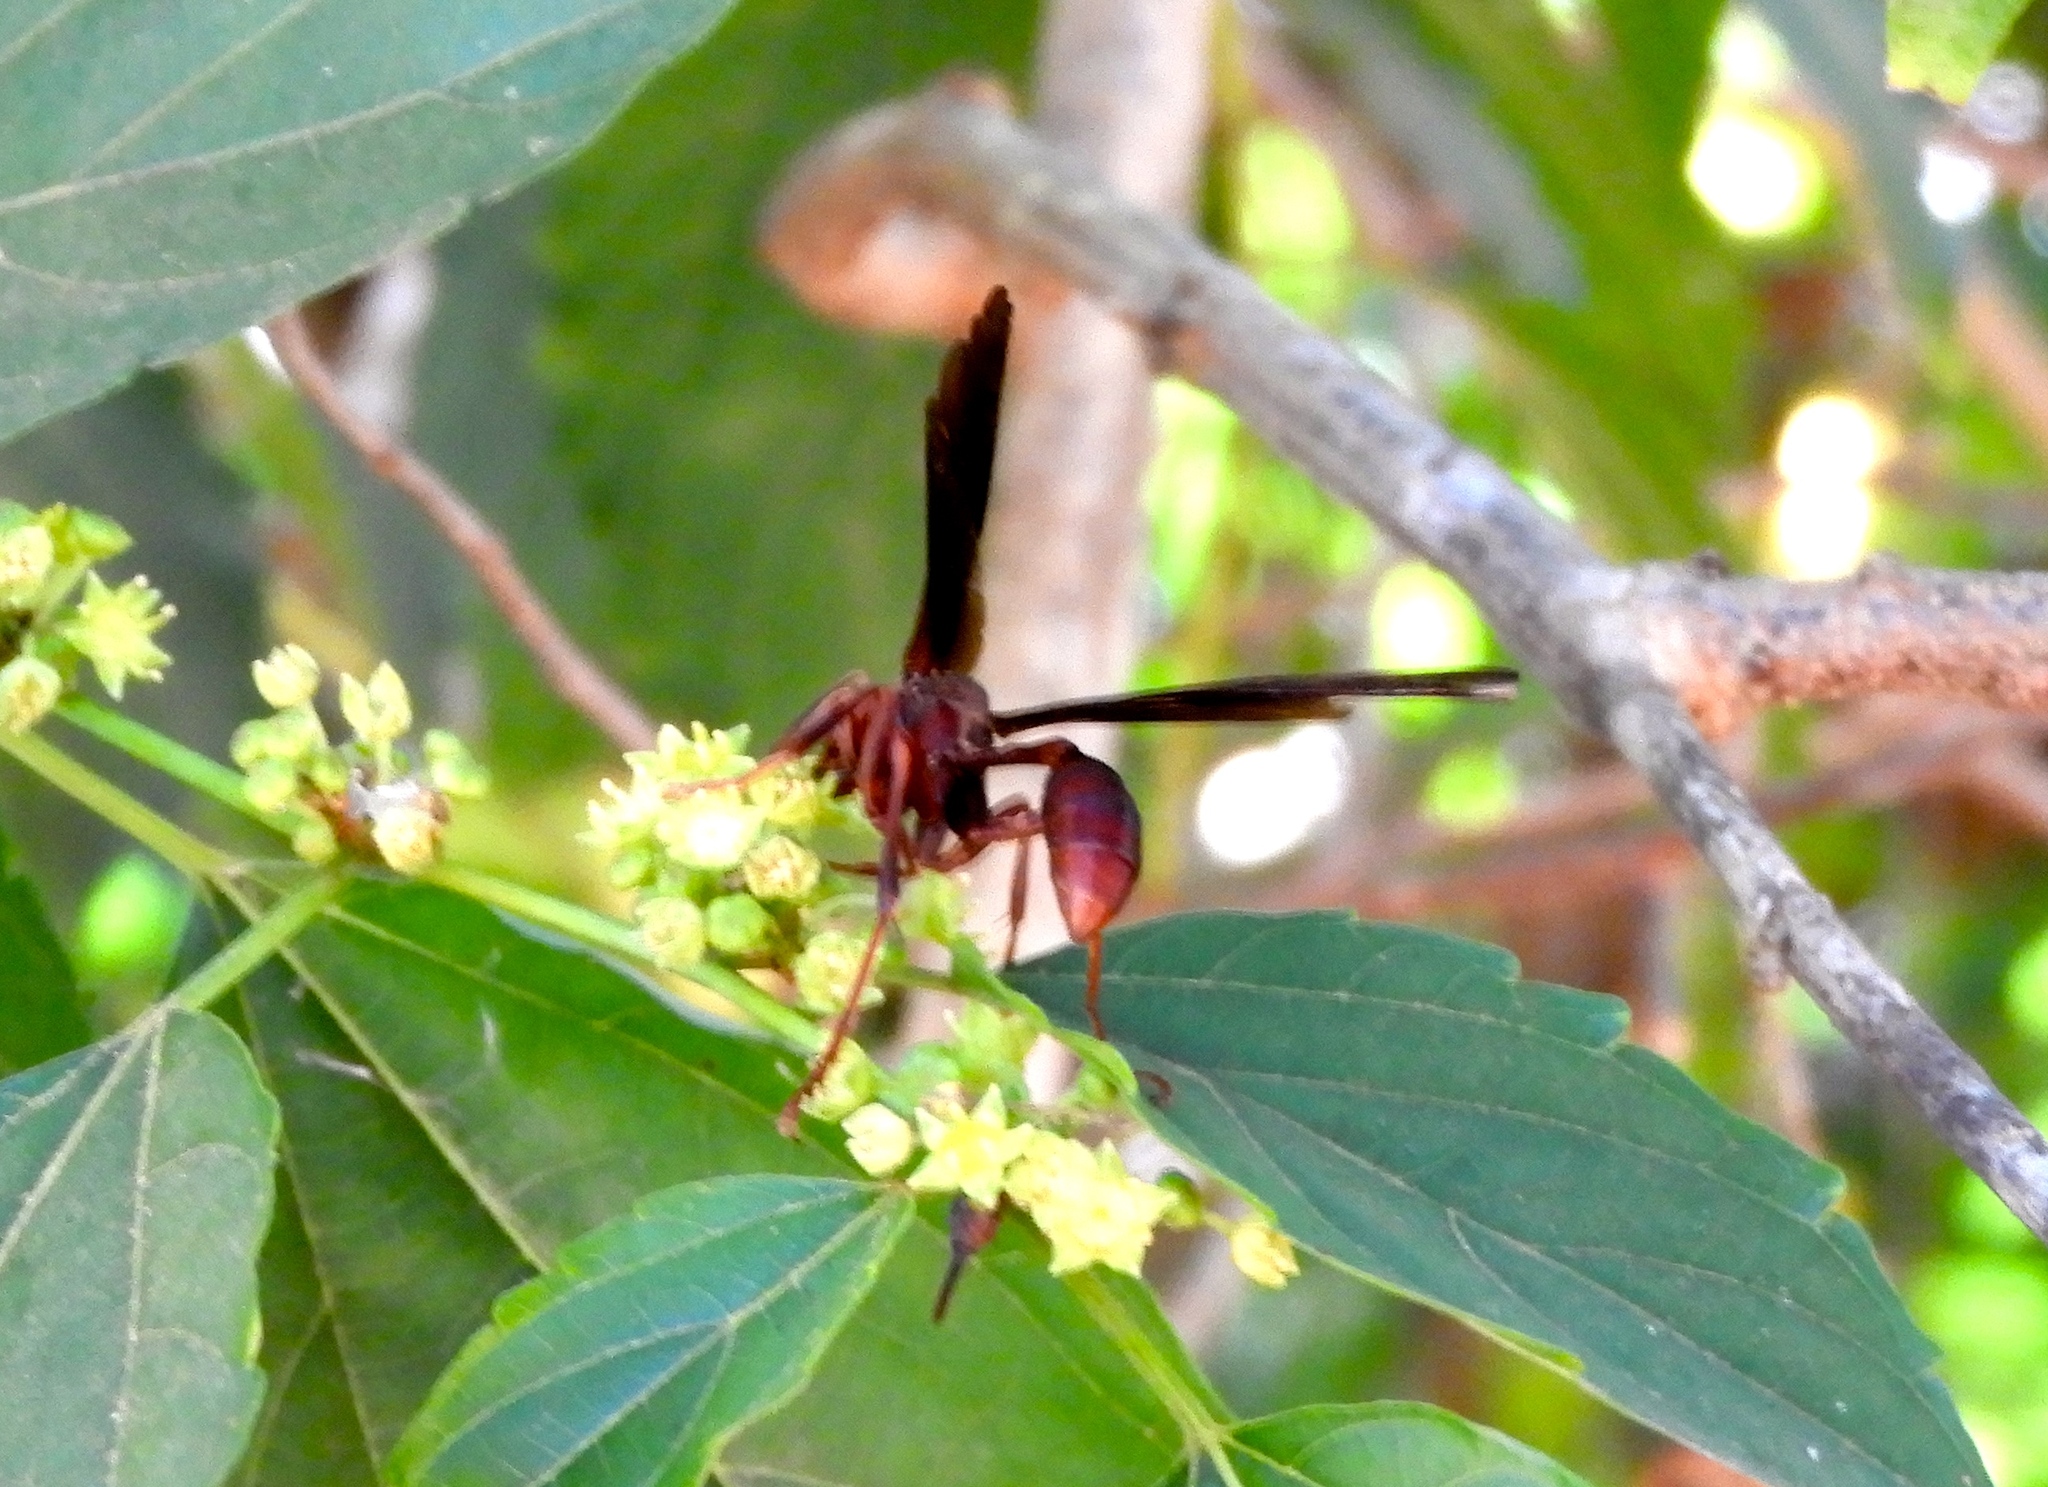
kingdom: Animalia
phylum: Arthropoda
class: Insecta
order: Hymenoptera
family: Vespidae
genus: Mischocyttarus
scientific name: Mischocyttarus melanarius
